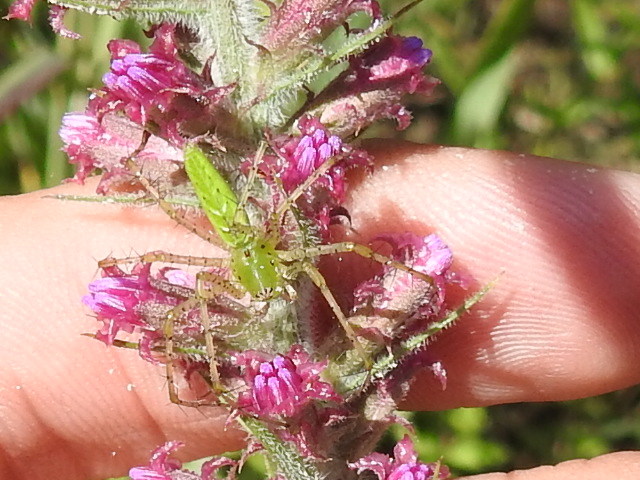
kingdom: Animalia
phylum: Arthropoda
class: Arachnida
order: Araneae
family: Oxyopidae
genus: Peucetia
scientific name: Peucetia viridans
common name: Lynx spiders
